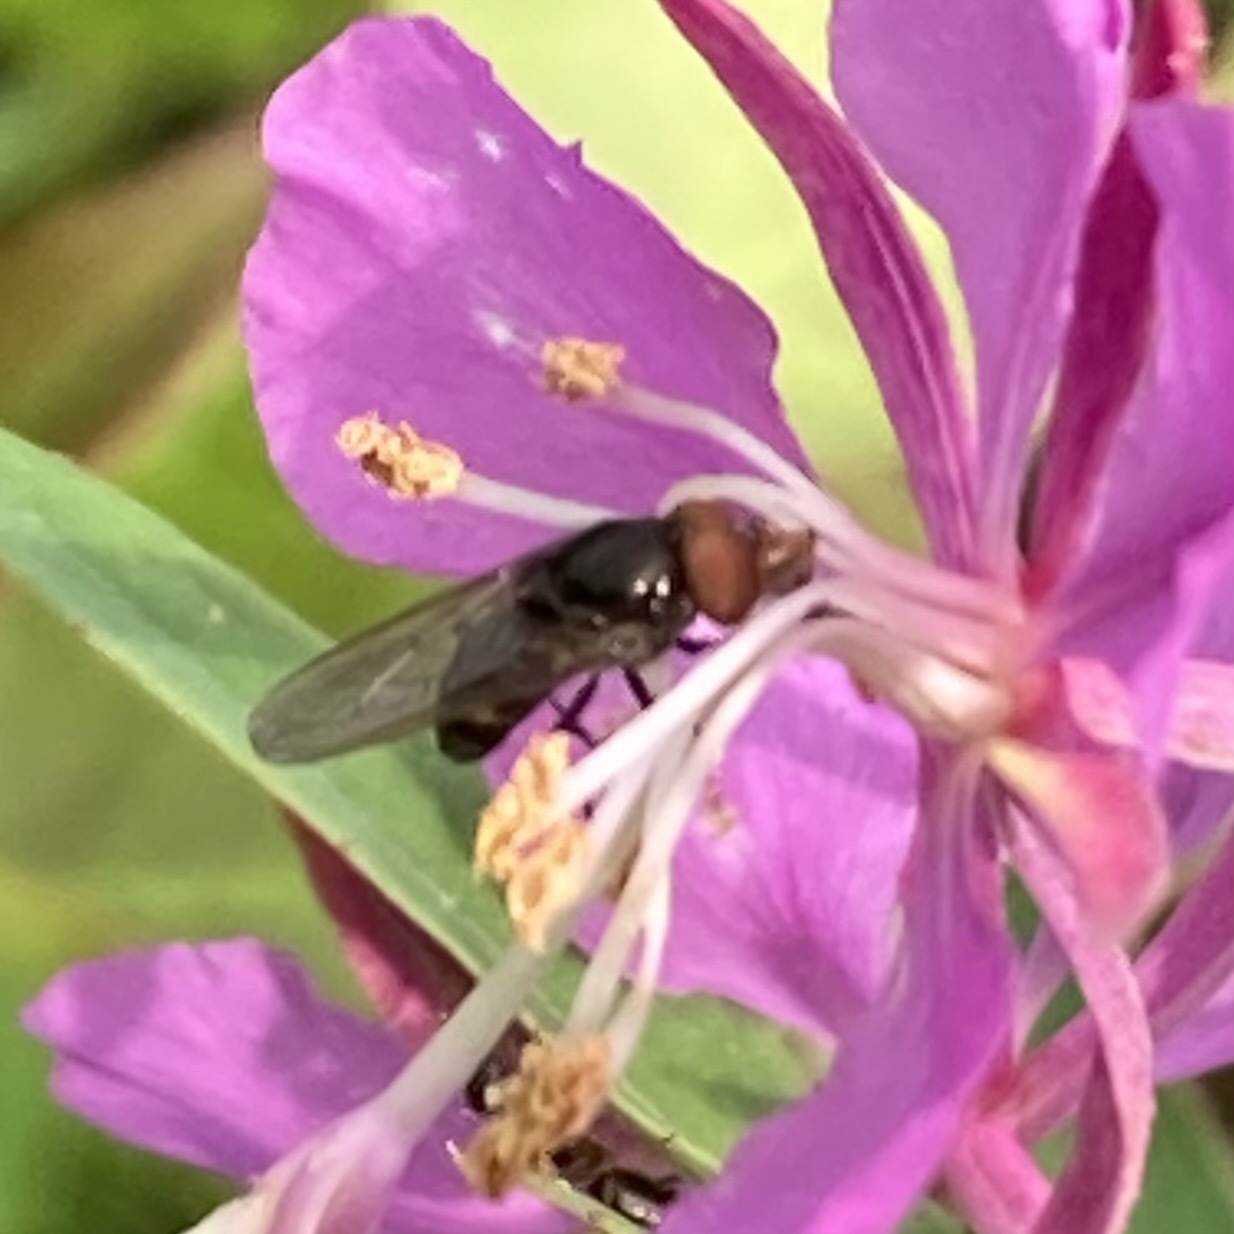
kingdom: Animalia
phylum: Arthropoda
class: Insecta
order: Diptera
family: Syrphidae
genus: Rhingia
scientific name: Rhingia nasica
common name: American snout fly
